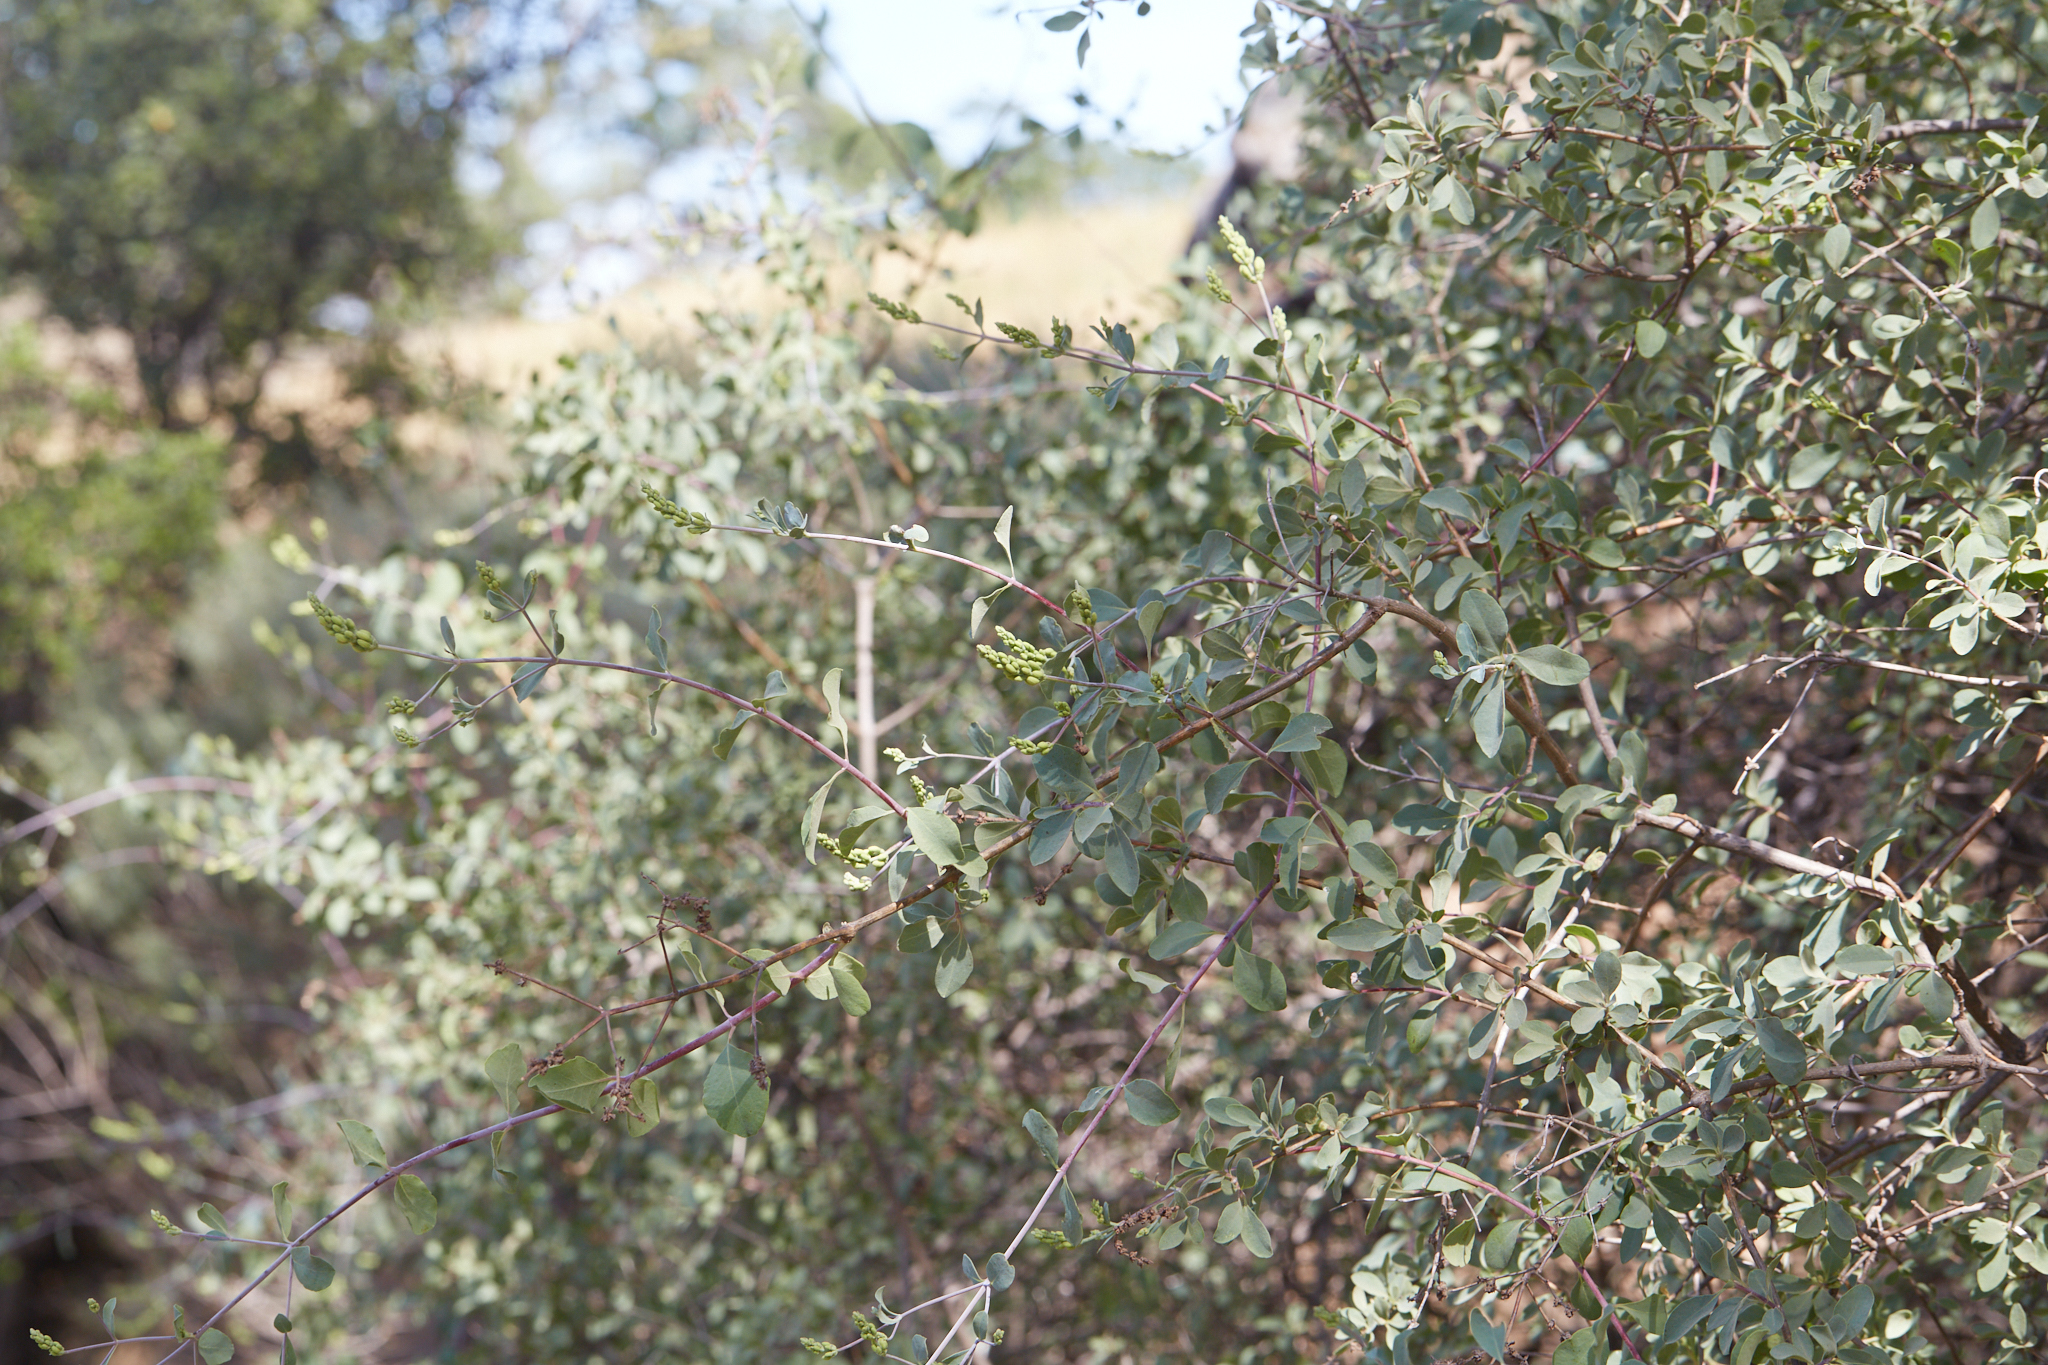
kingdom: Plantae
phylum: Tracheophyta
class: Magnoliopsida
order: Dipsacales
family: Caprifoliaceae
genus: Lonicera
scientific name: Lonicera subspicata
